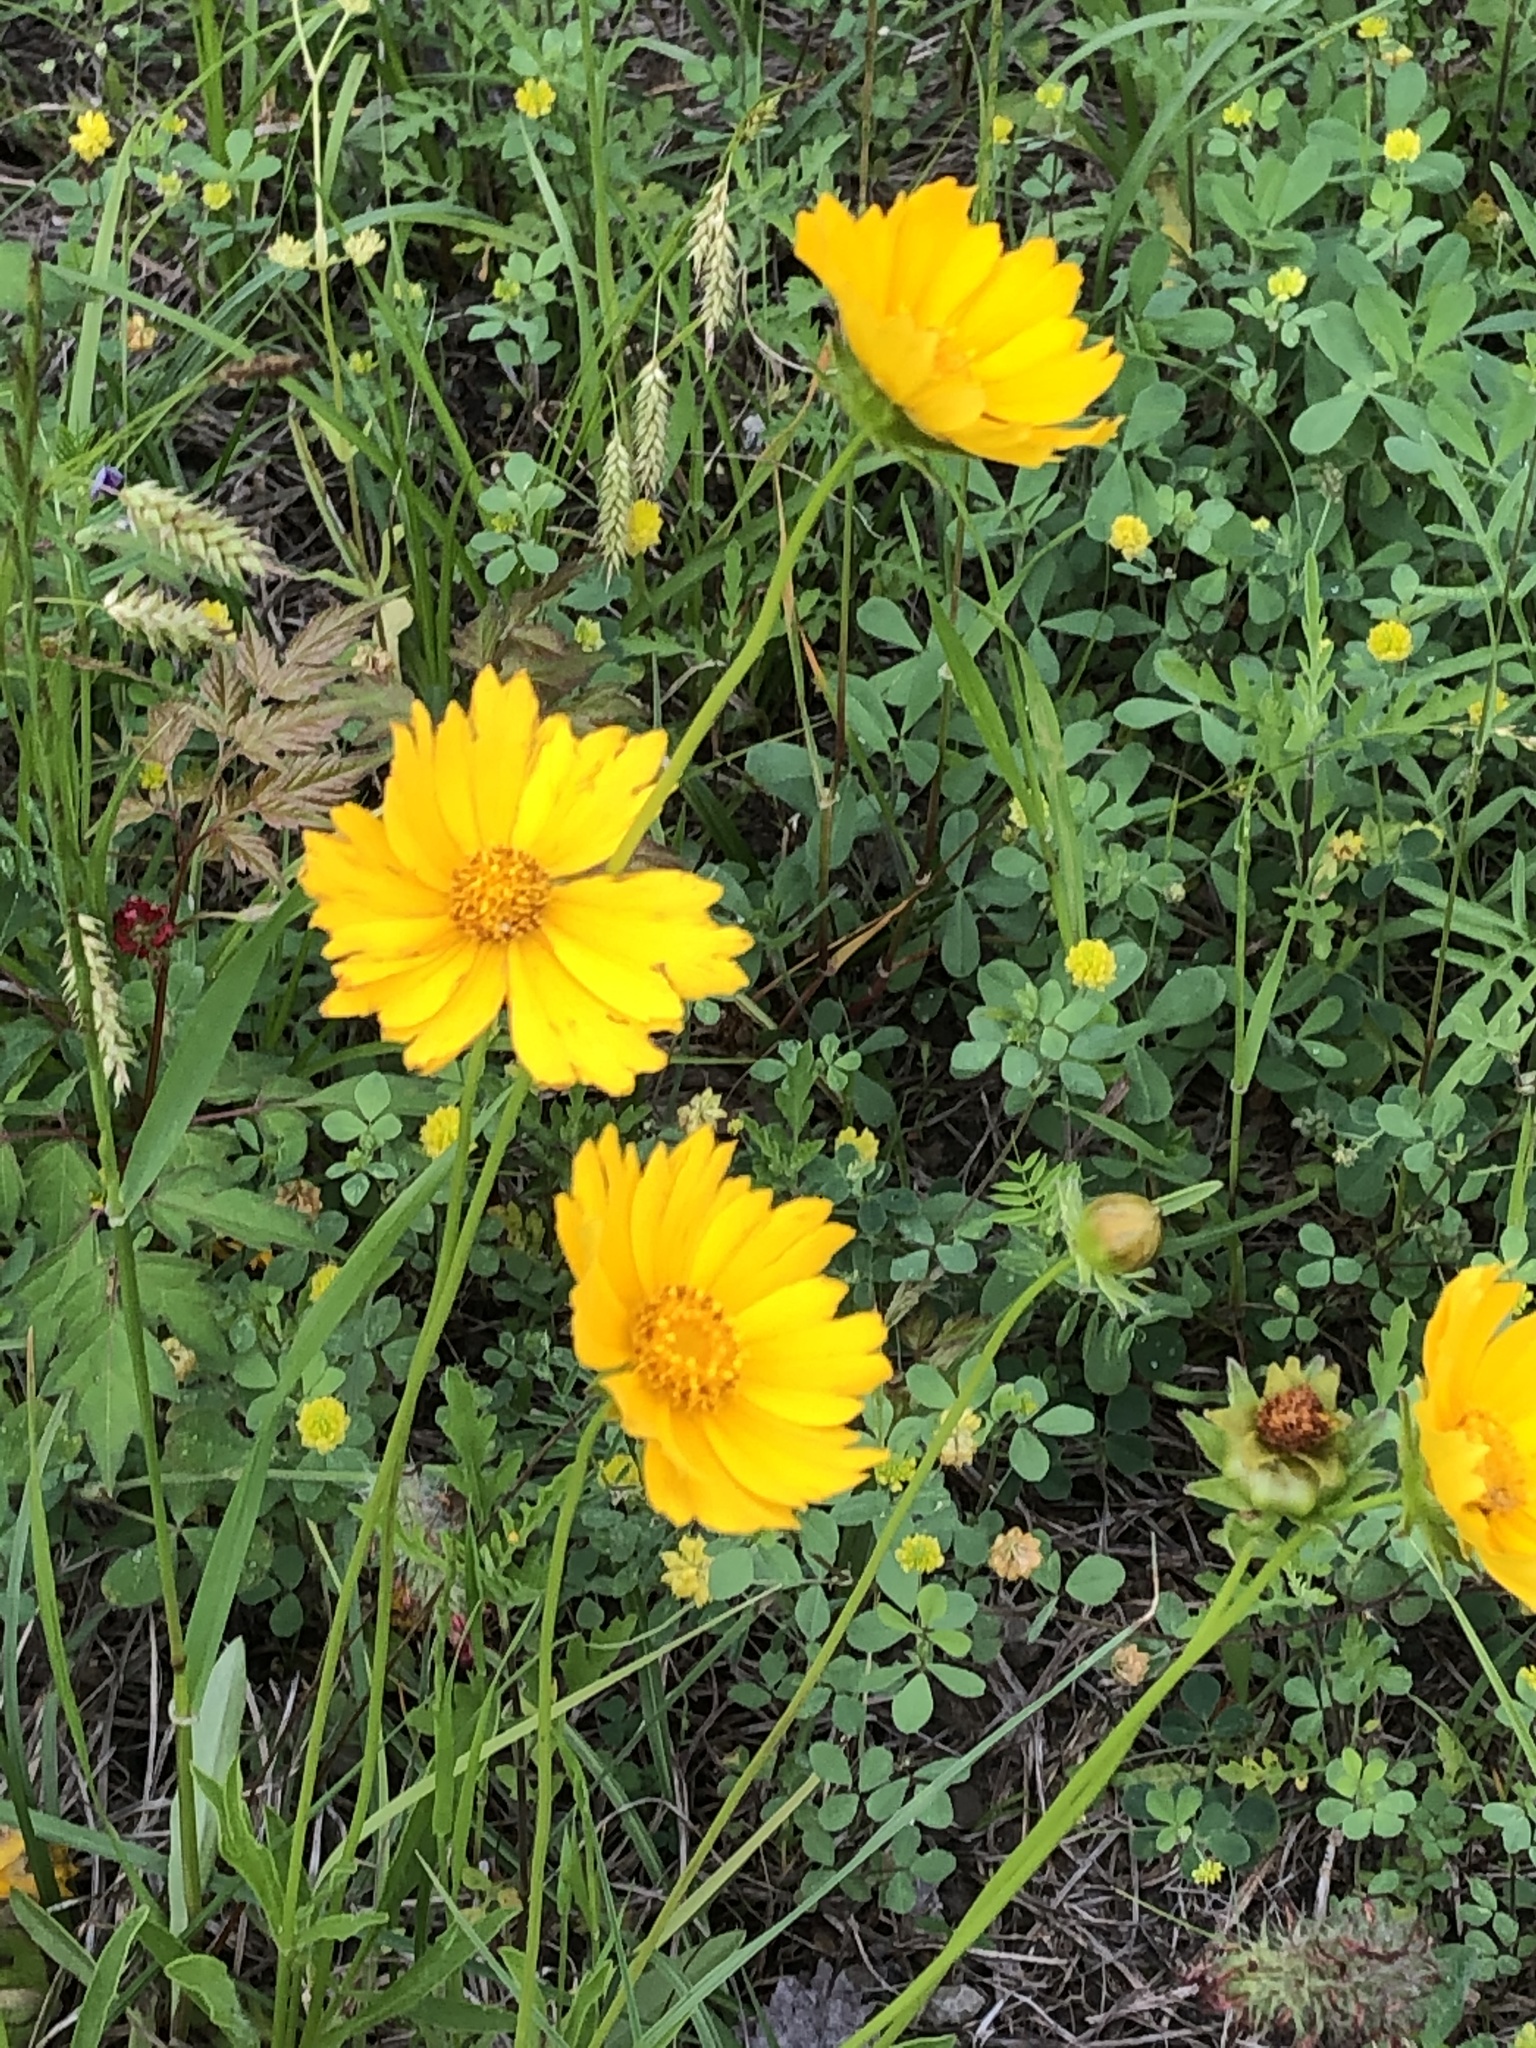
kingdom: Plantae
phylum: Tracheophyta
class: Magnoliopsida
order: Asterales
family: Asteraceae
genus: Coreopsis
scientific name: Coreopsis lanceolata
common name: Garden coreopsis
